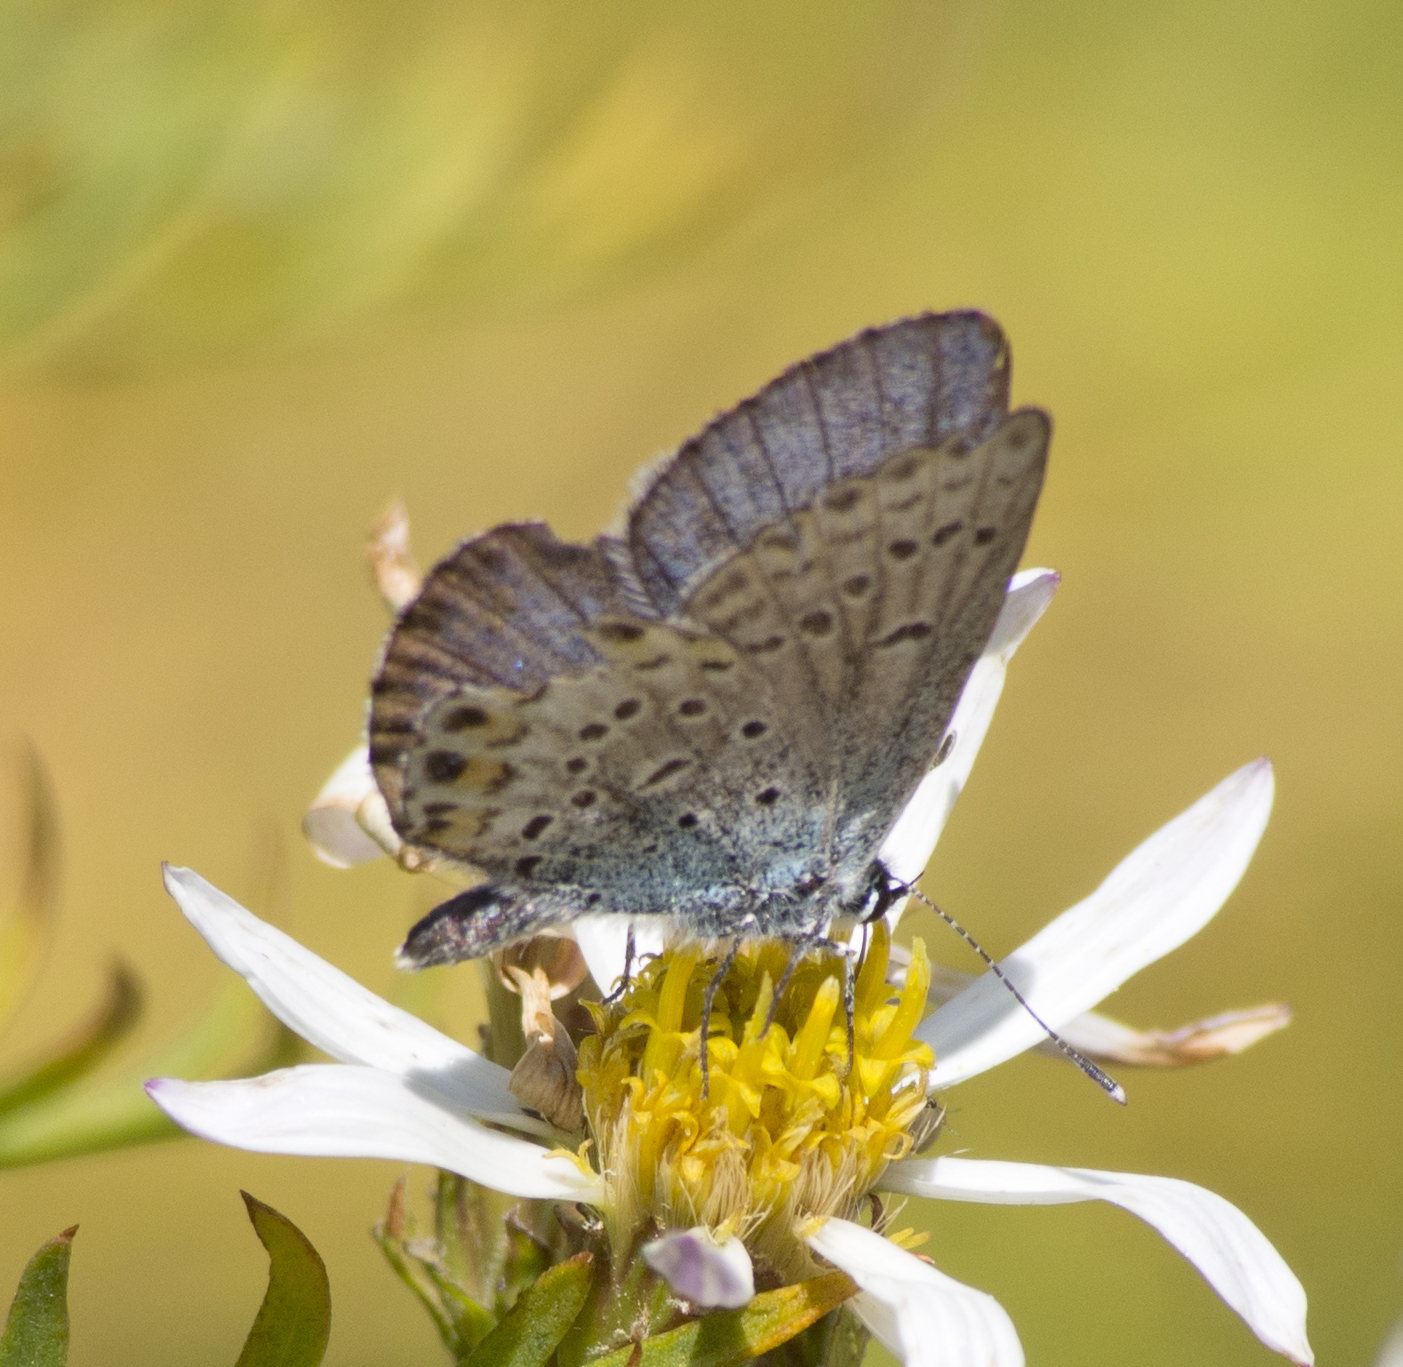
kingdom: Animalia
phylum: Arthropoda
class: Insecta
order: Lepidoptera
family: Lycaenidae
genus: Icaricia
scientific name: Icaricia lupini
